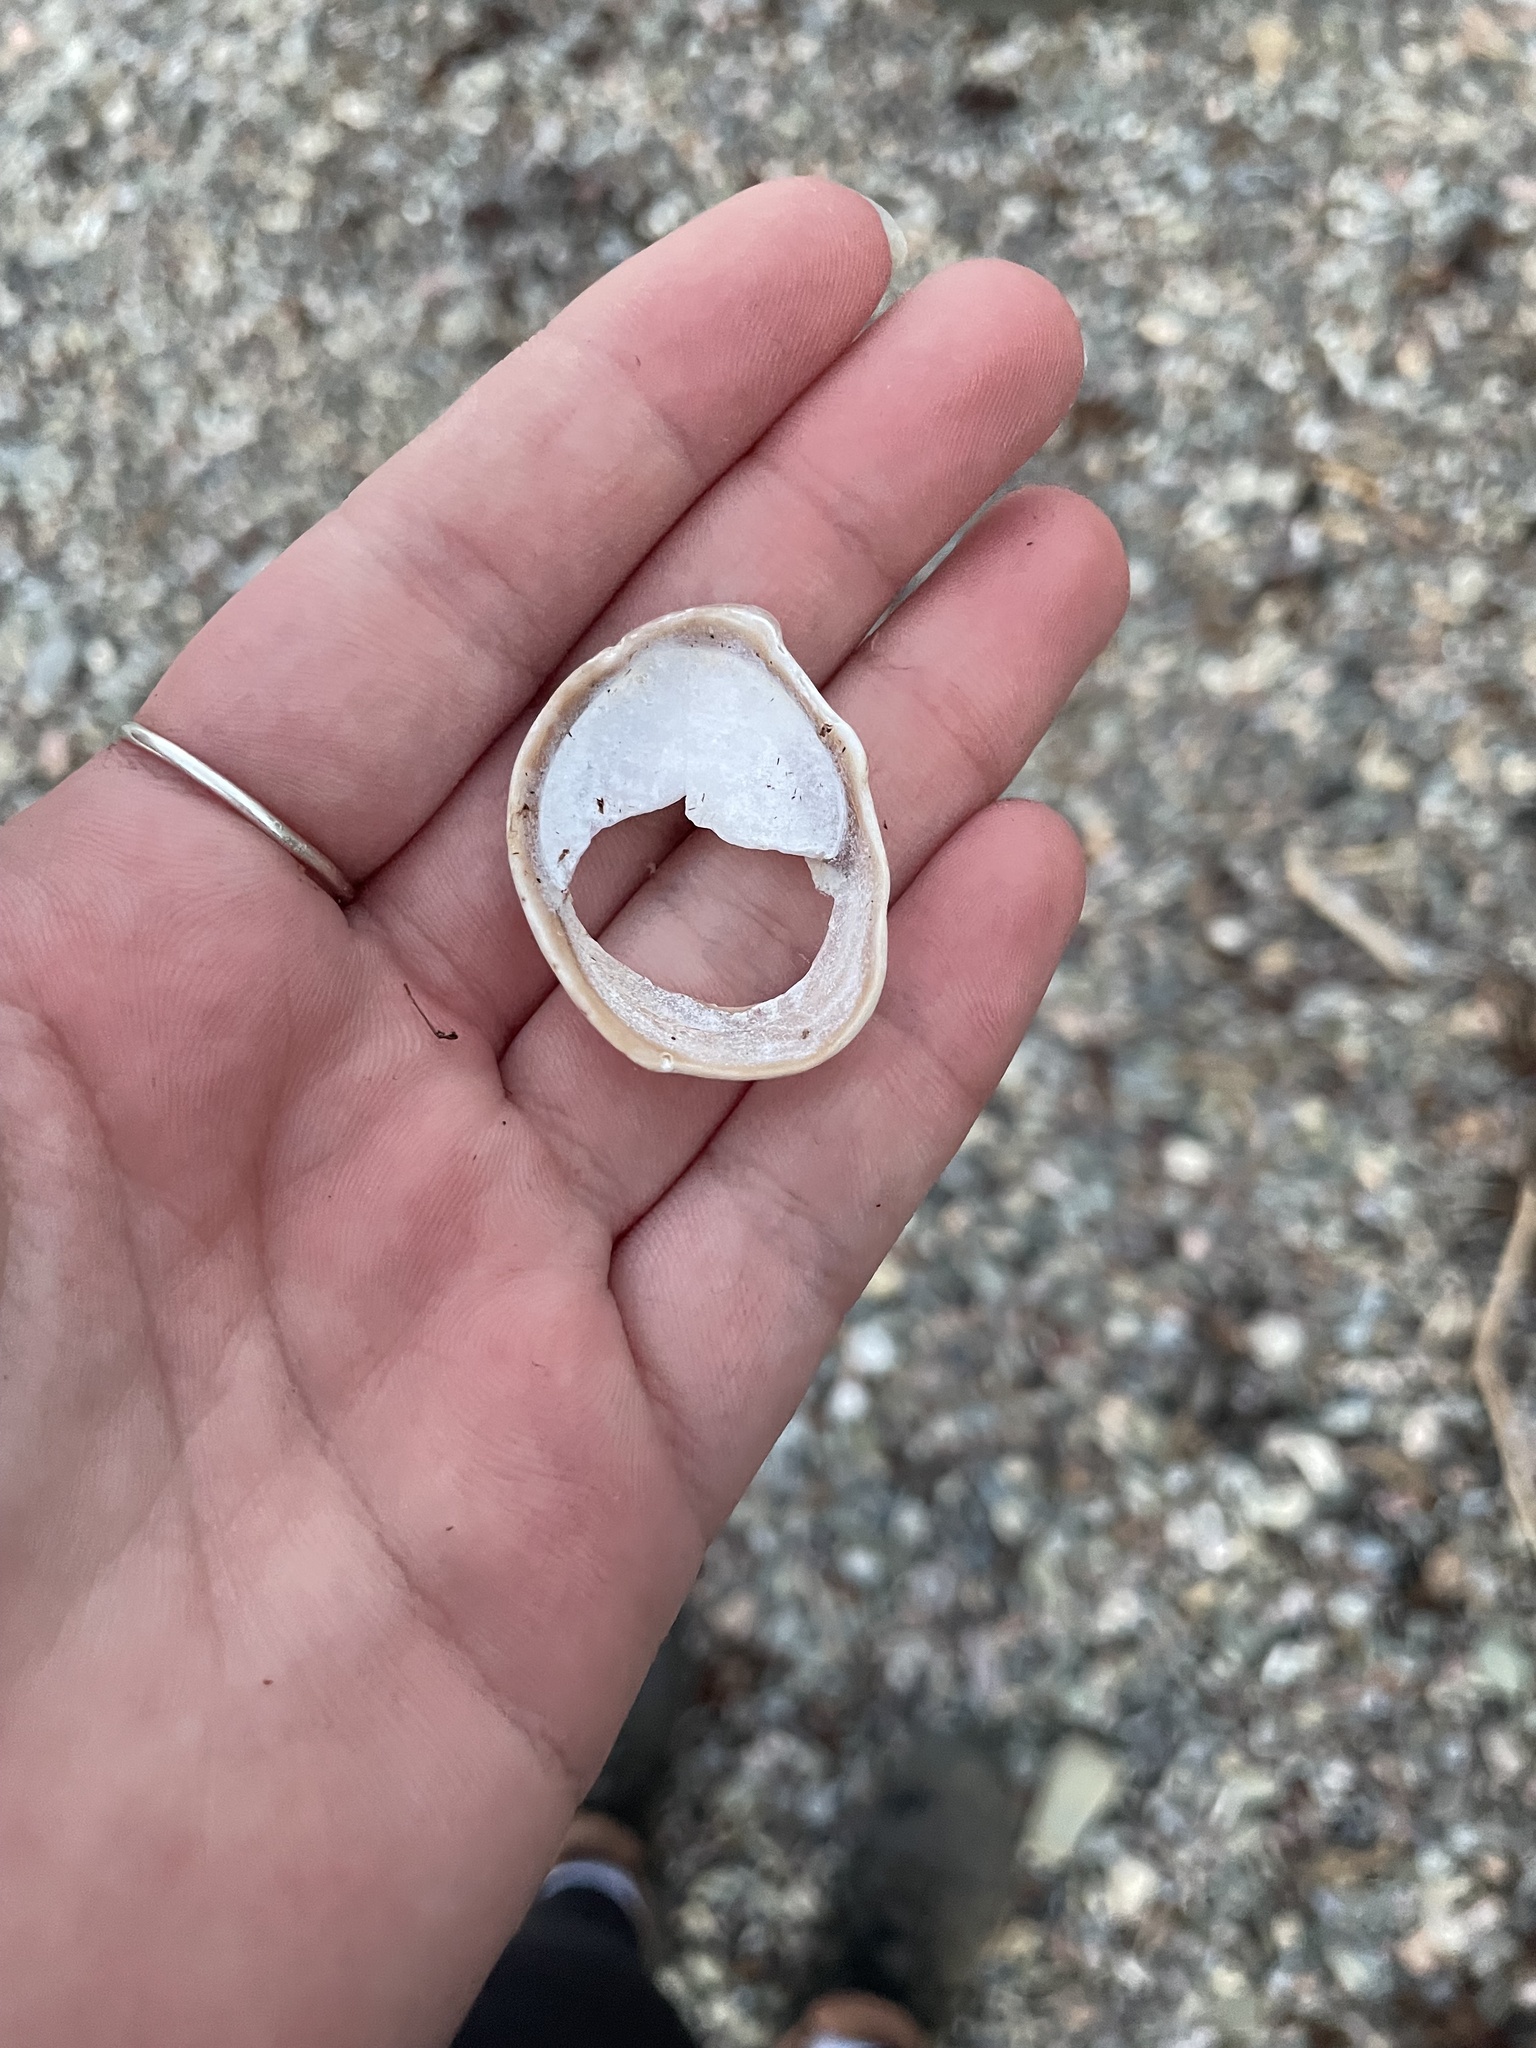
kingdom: Animalia
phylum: Mollusca
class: Gastropoda
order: Littorinimorpha
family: Calyptraeidae
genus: Crepidula
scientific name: Crepidula fornicata
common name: Slipper limpet
